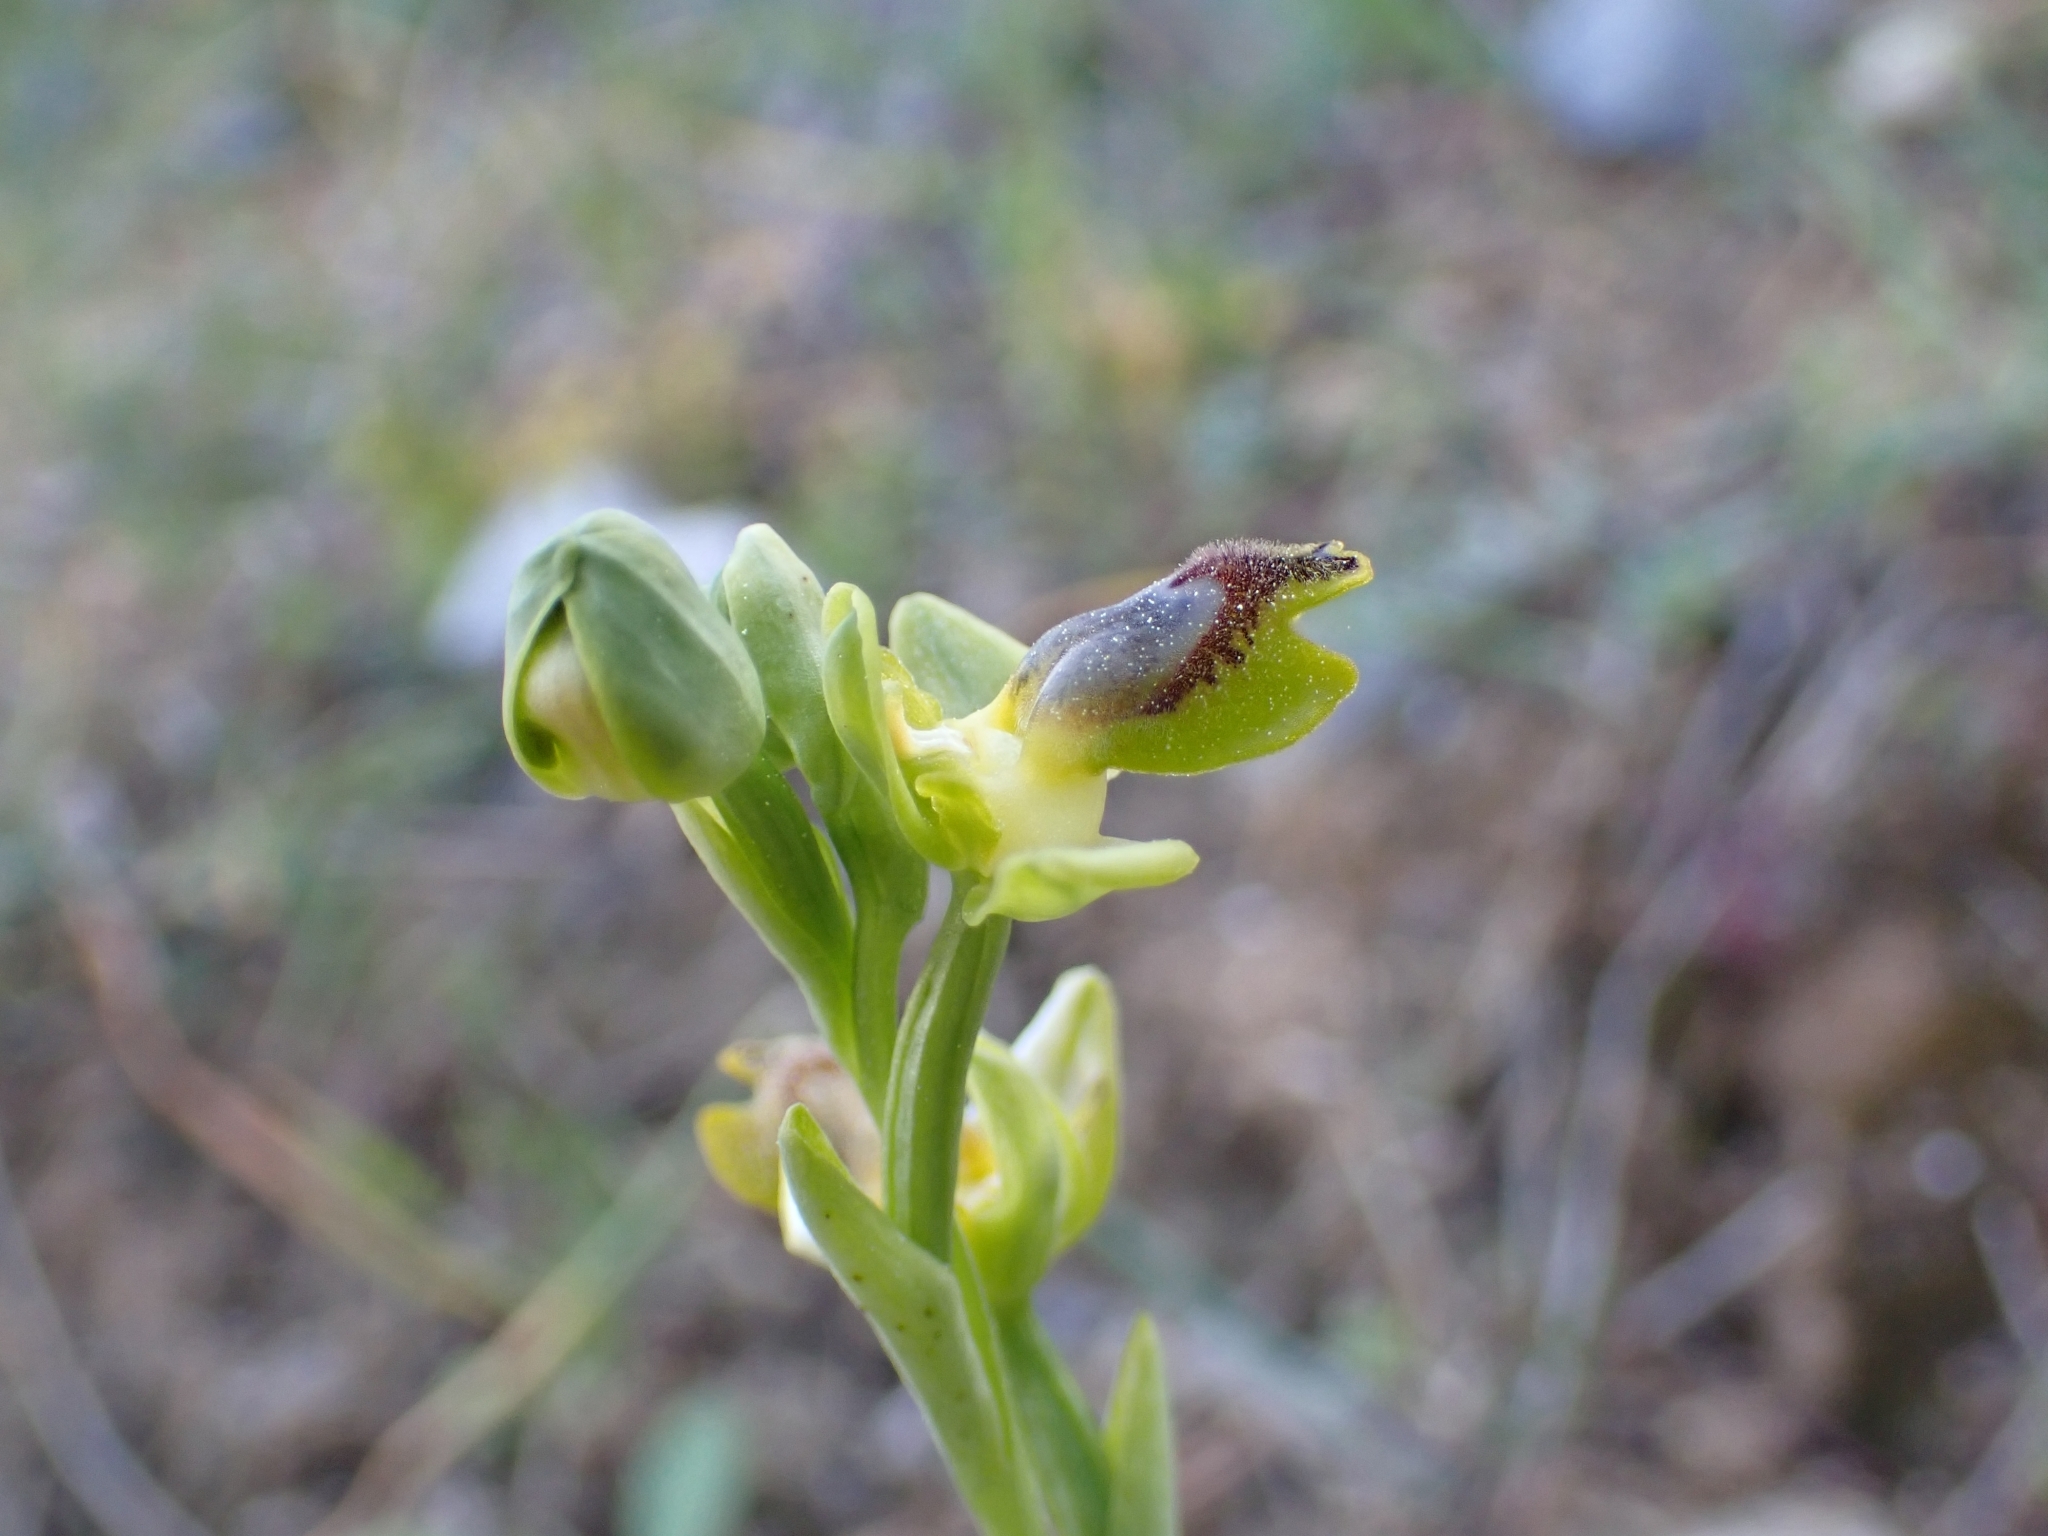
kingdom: Plantae
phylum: Tracheophyta
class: Liliopsida
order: Asparagales
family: Orchidaceae
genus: Ophrys
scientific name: Ophrys lutea
